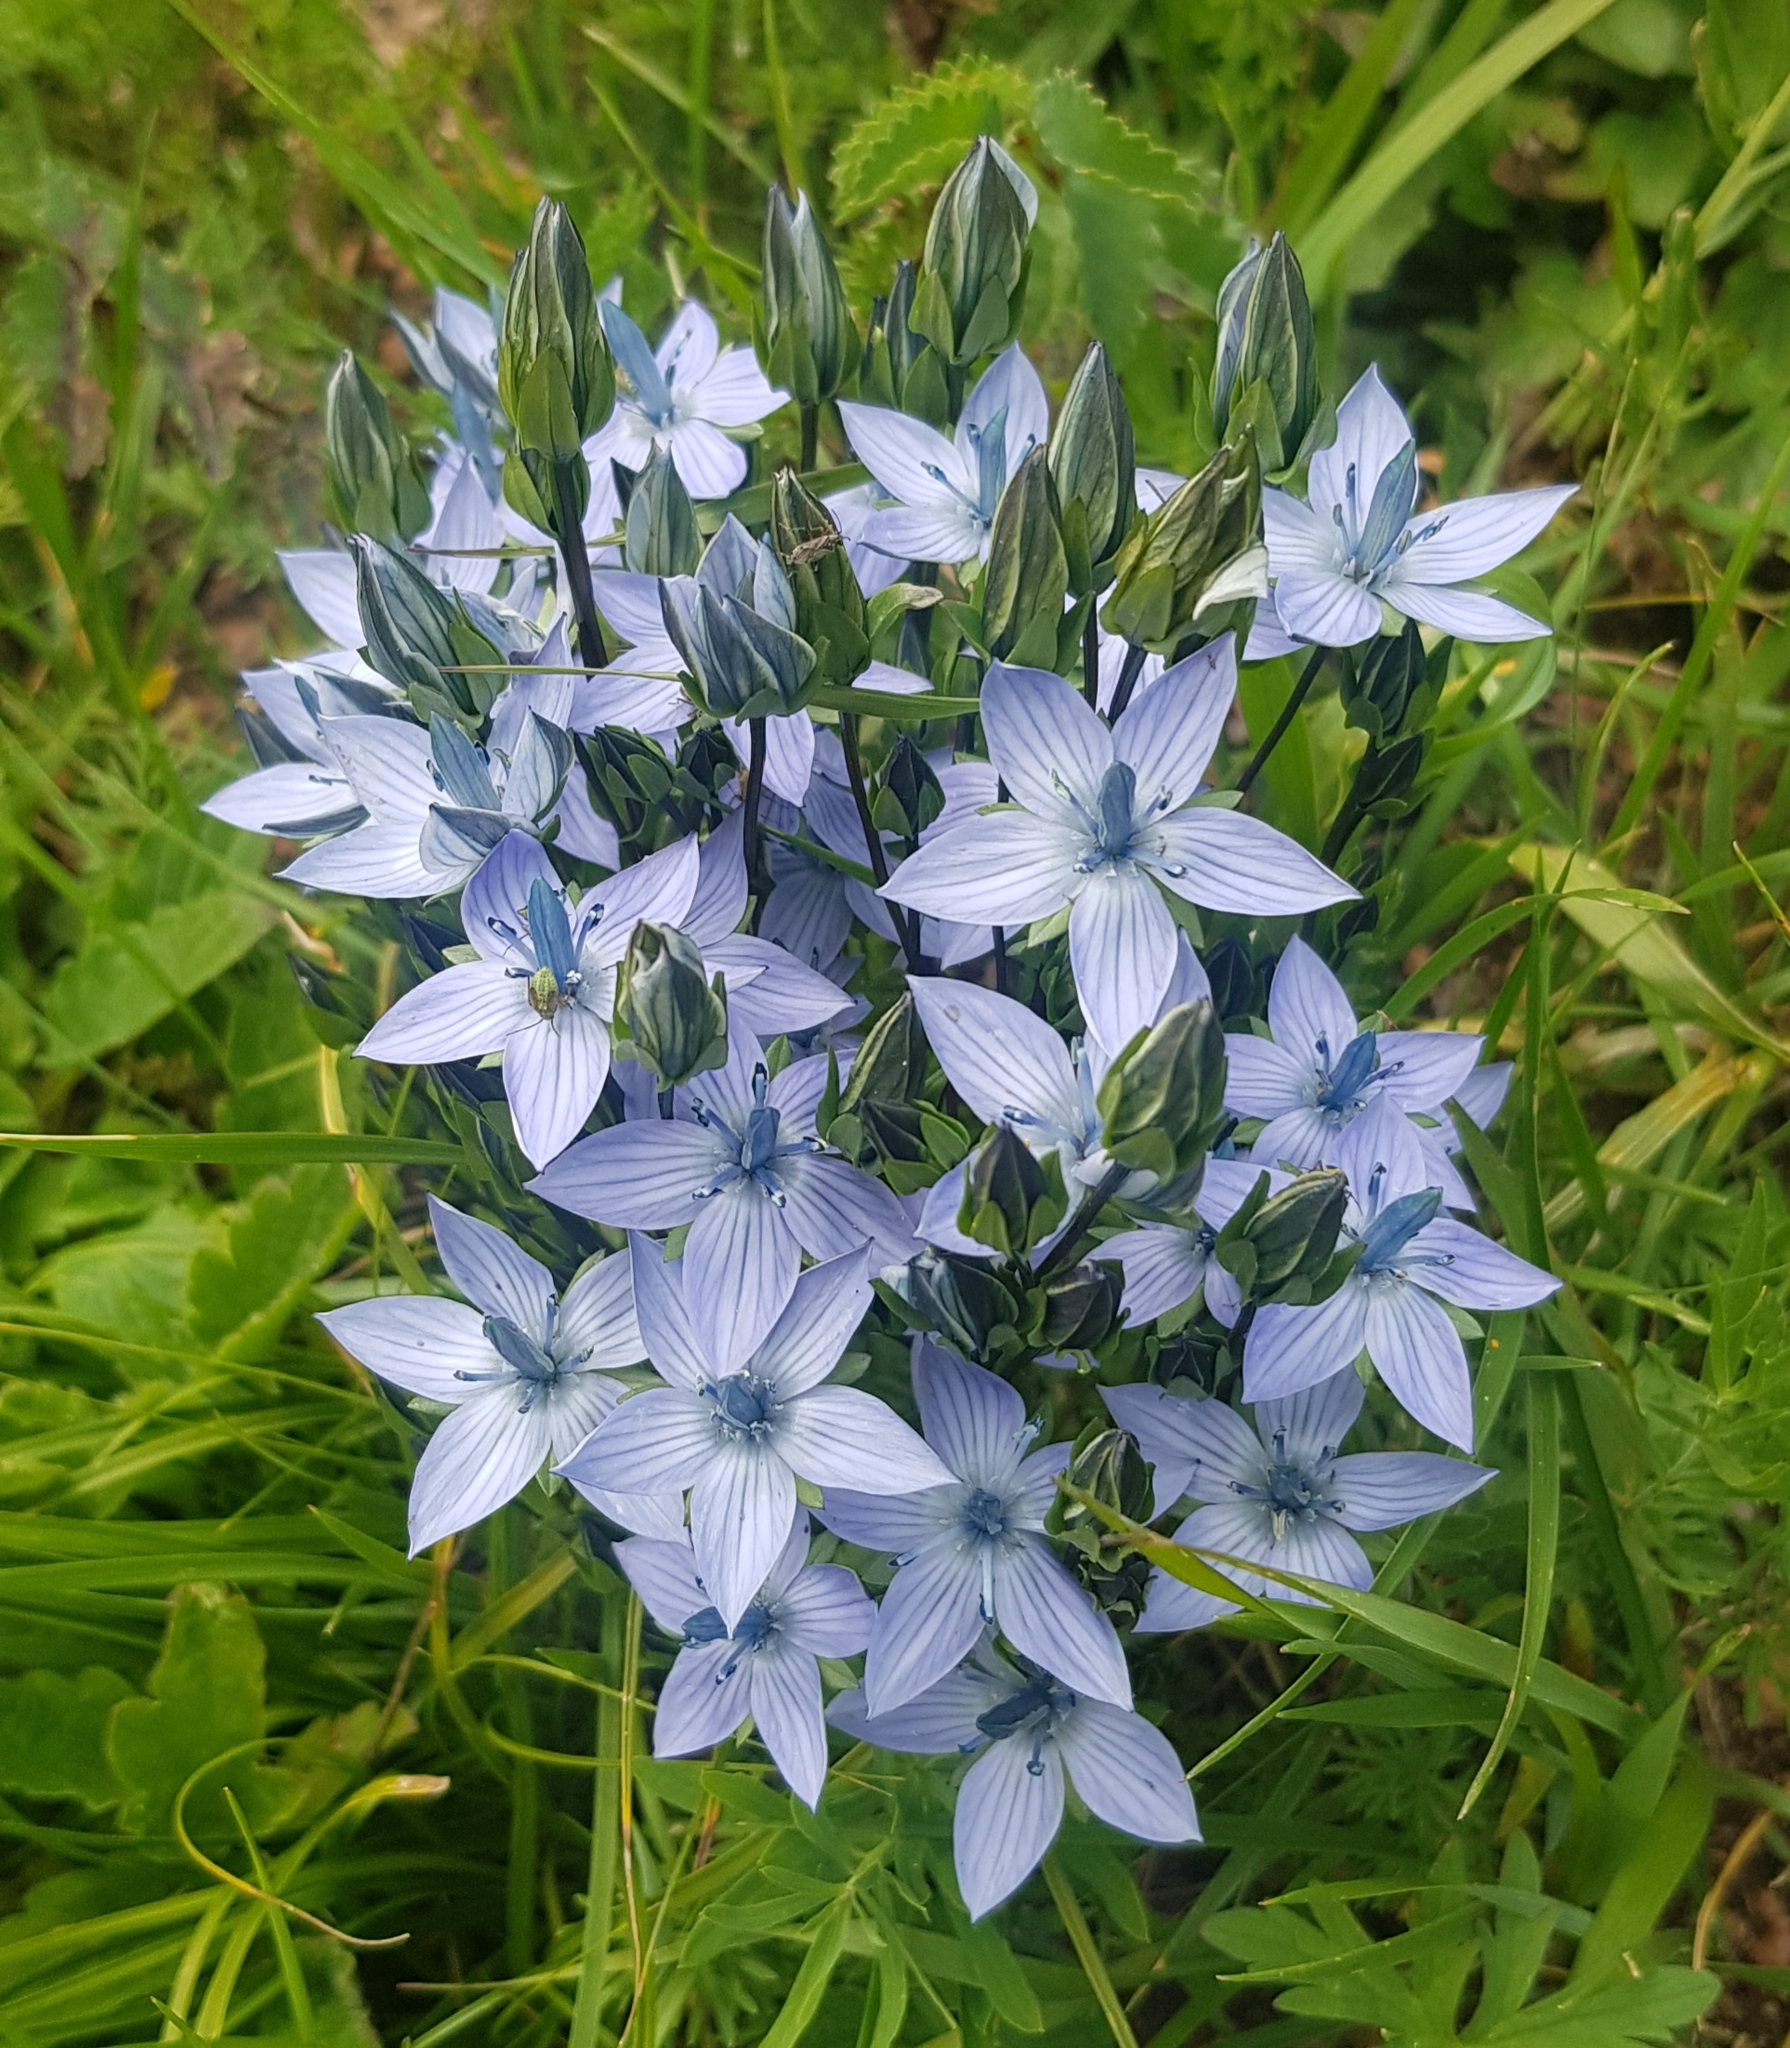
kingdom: Plantae
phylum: Tracheophyta
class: Magnoliopsida
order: Gentianales
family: Gentianaceae
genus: Lomatogonium
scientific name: Lomatogonium carinthiacum
